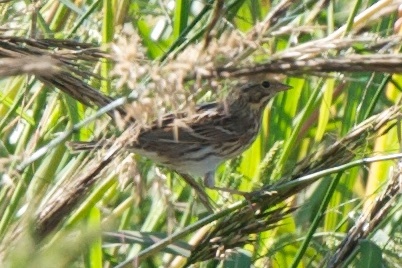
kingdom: Animalia
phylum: Chordata
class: Aves
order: Passeriformes
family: Passerellidae
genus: Passerculus
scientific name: Passerculus sandwichensis
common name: Savannah sparrow
